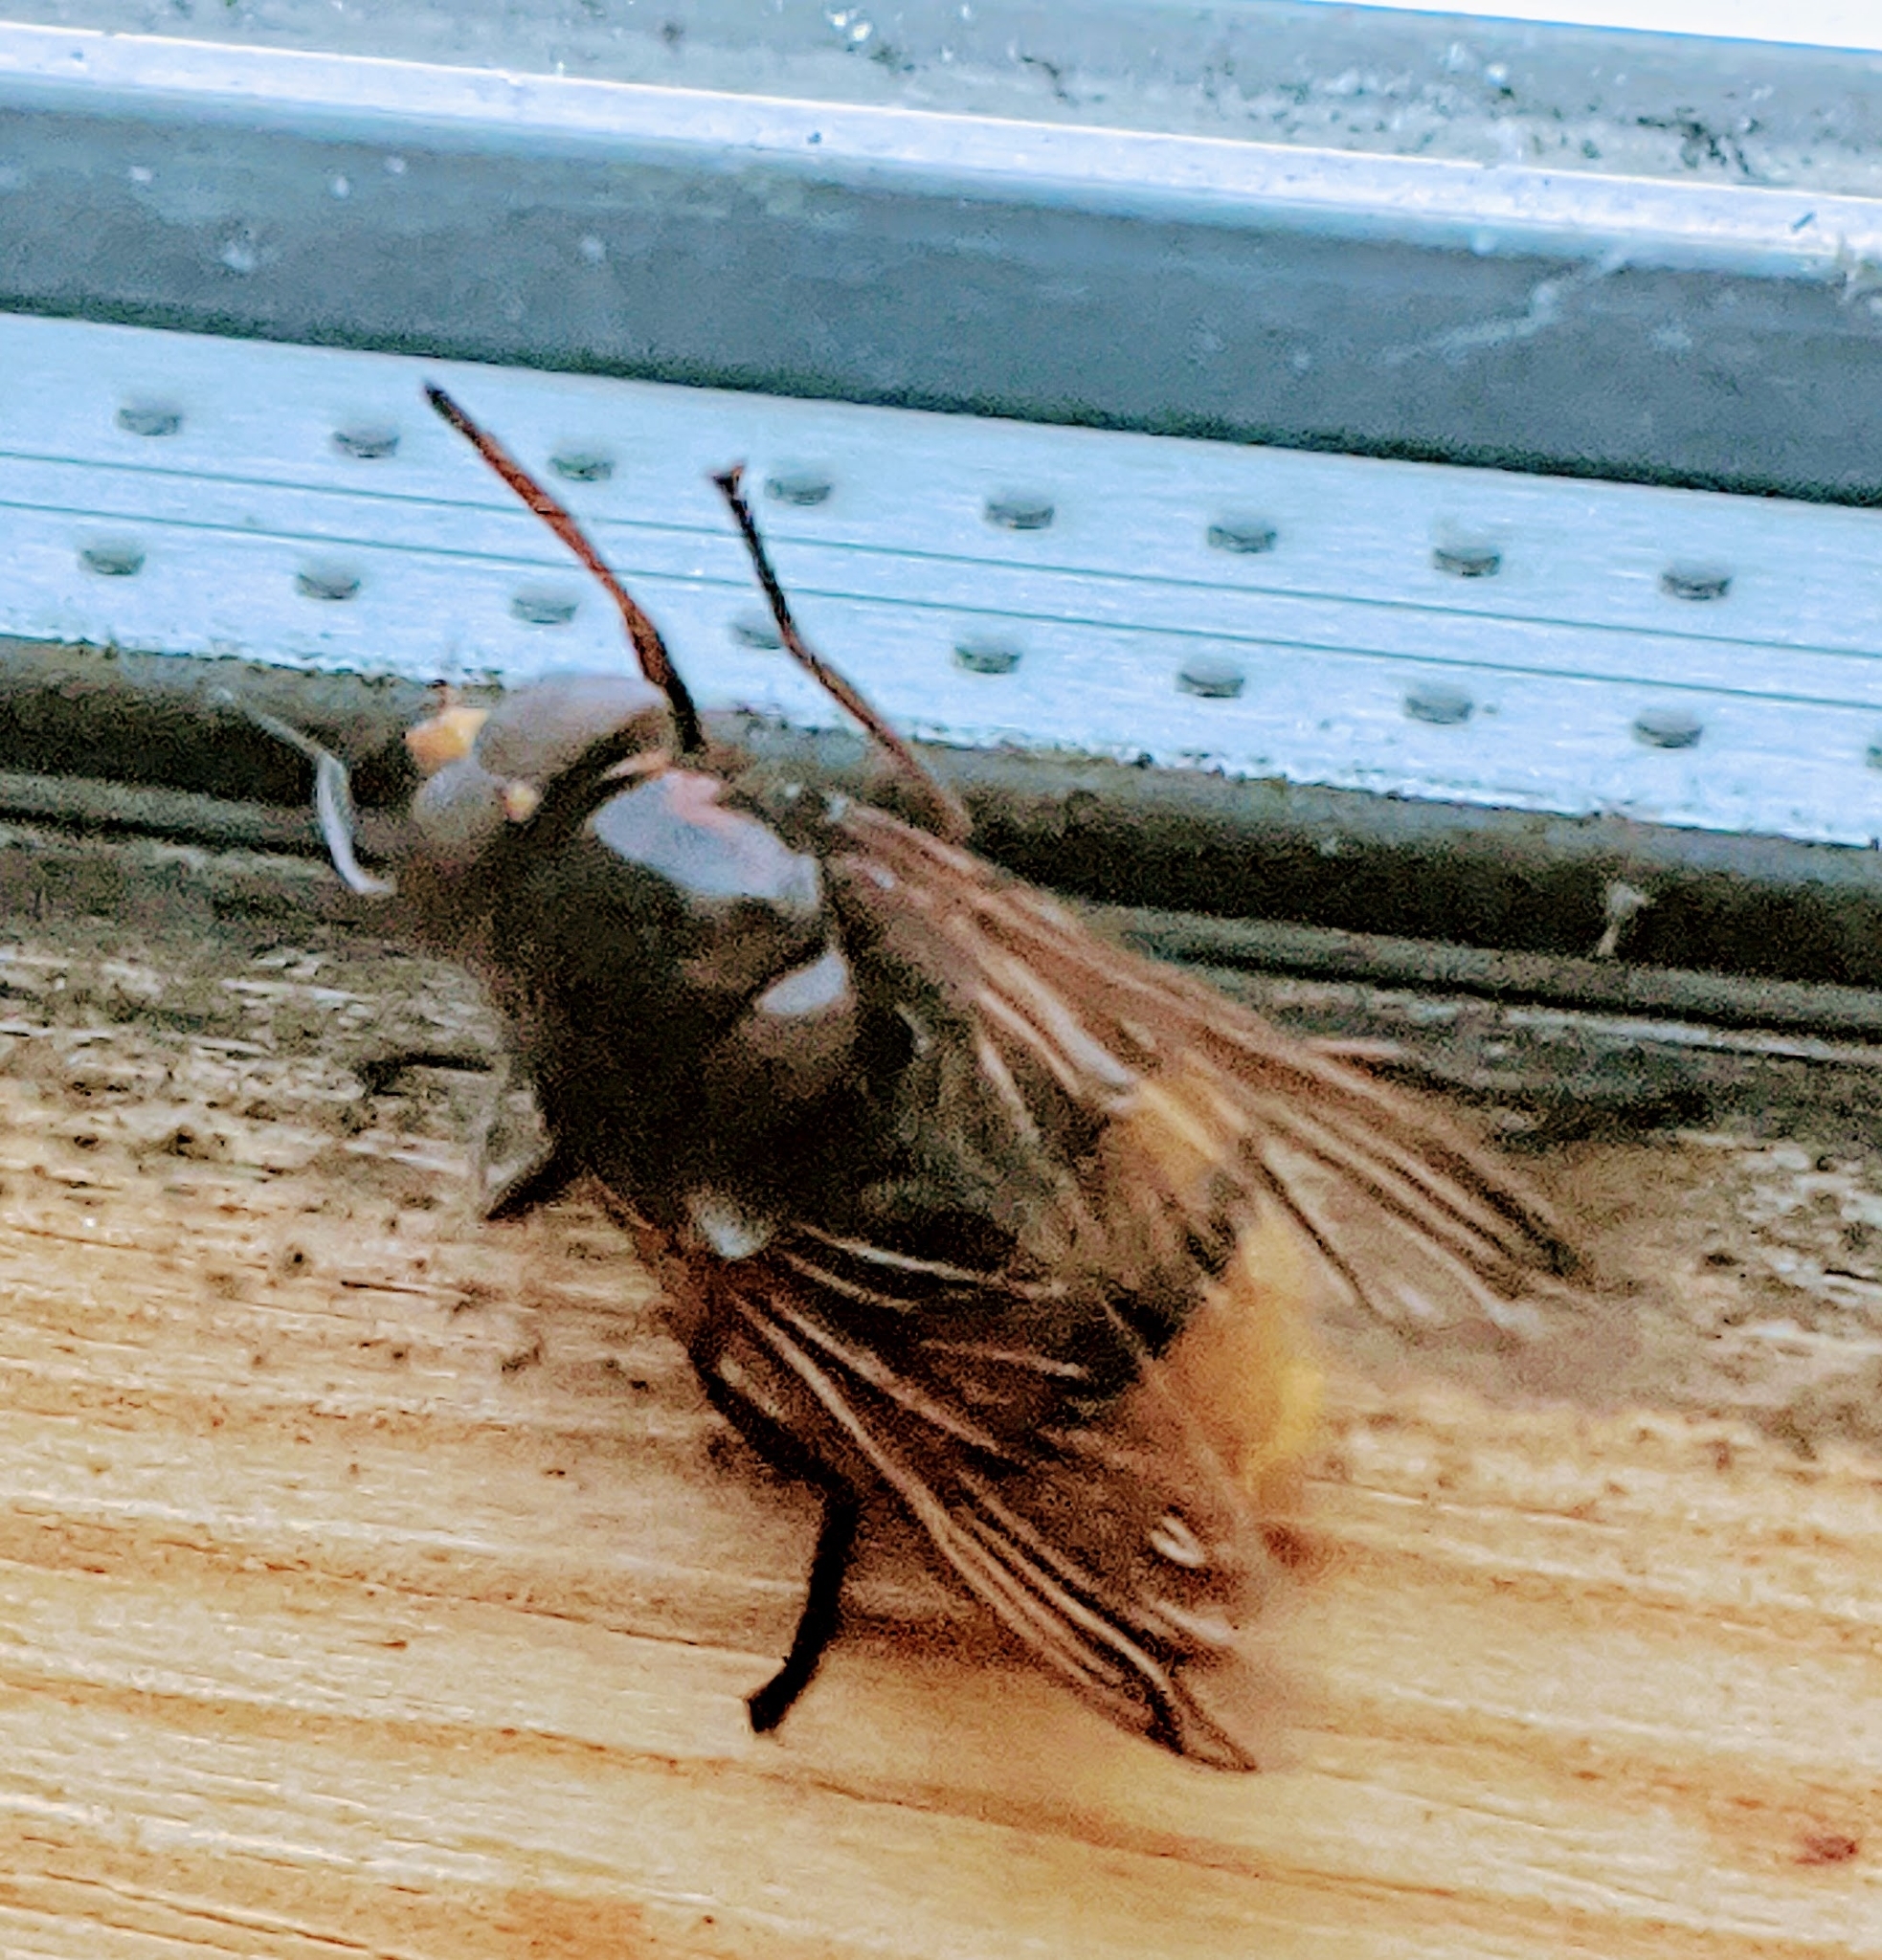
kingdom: Animalia
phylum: Arthropoda
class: Insecta
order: Diptera
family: Syrphidae
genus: Volucella
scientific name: Volucella zonaria
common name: Hornet hoverfly
